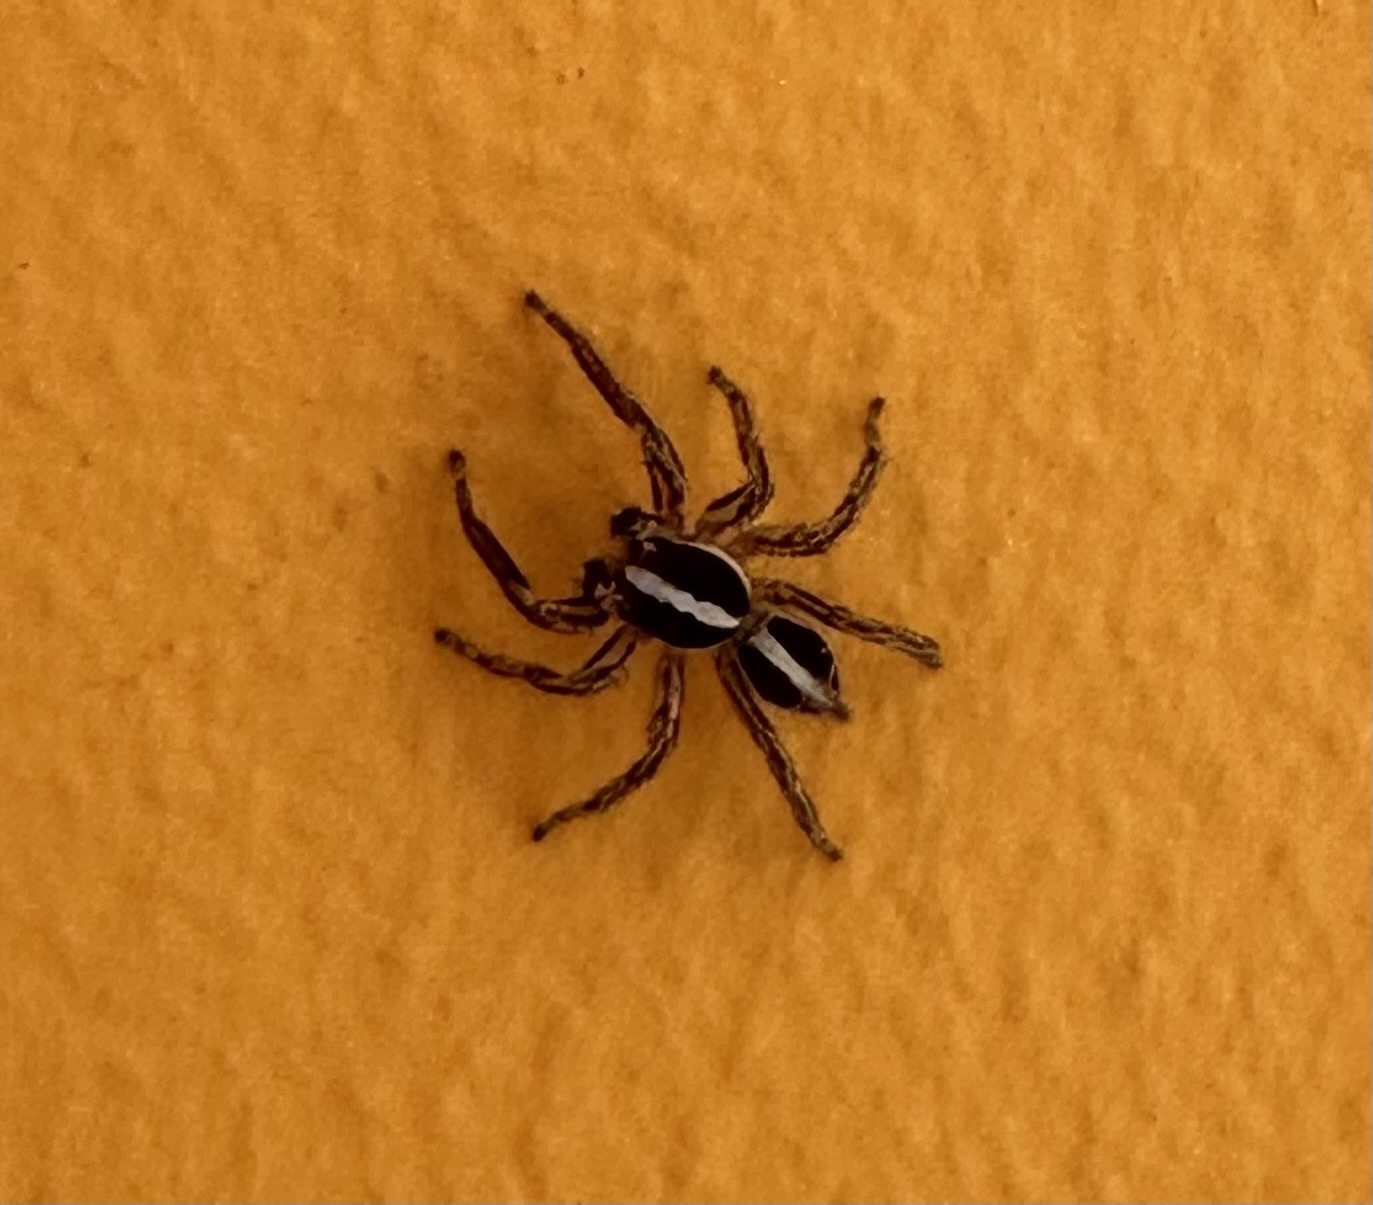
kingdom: Animalia
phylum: Arthropoda
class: Arachnida
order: Araneae
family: Salticidae
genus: Plexippus
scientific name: Plexippus paykulli
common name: Pantropical jumper
